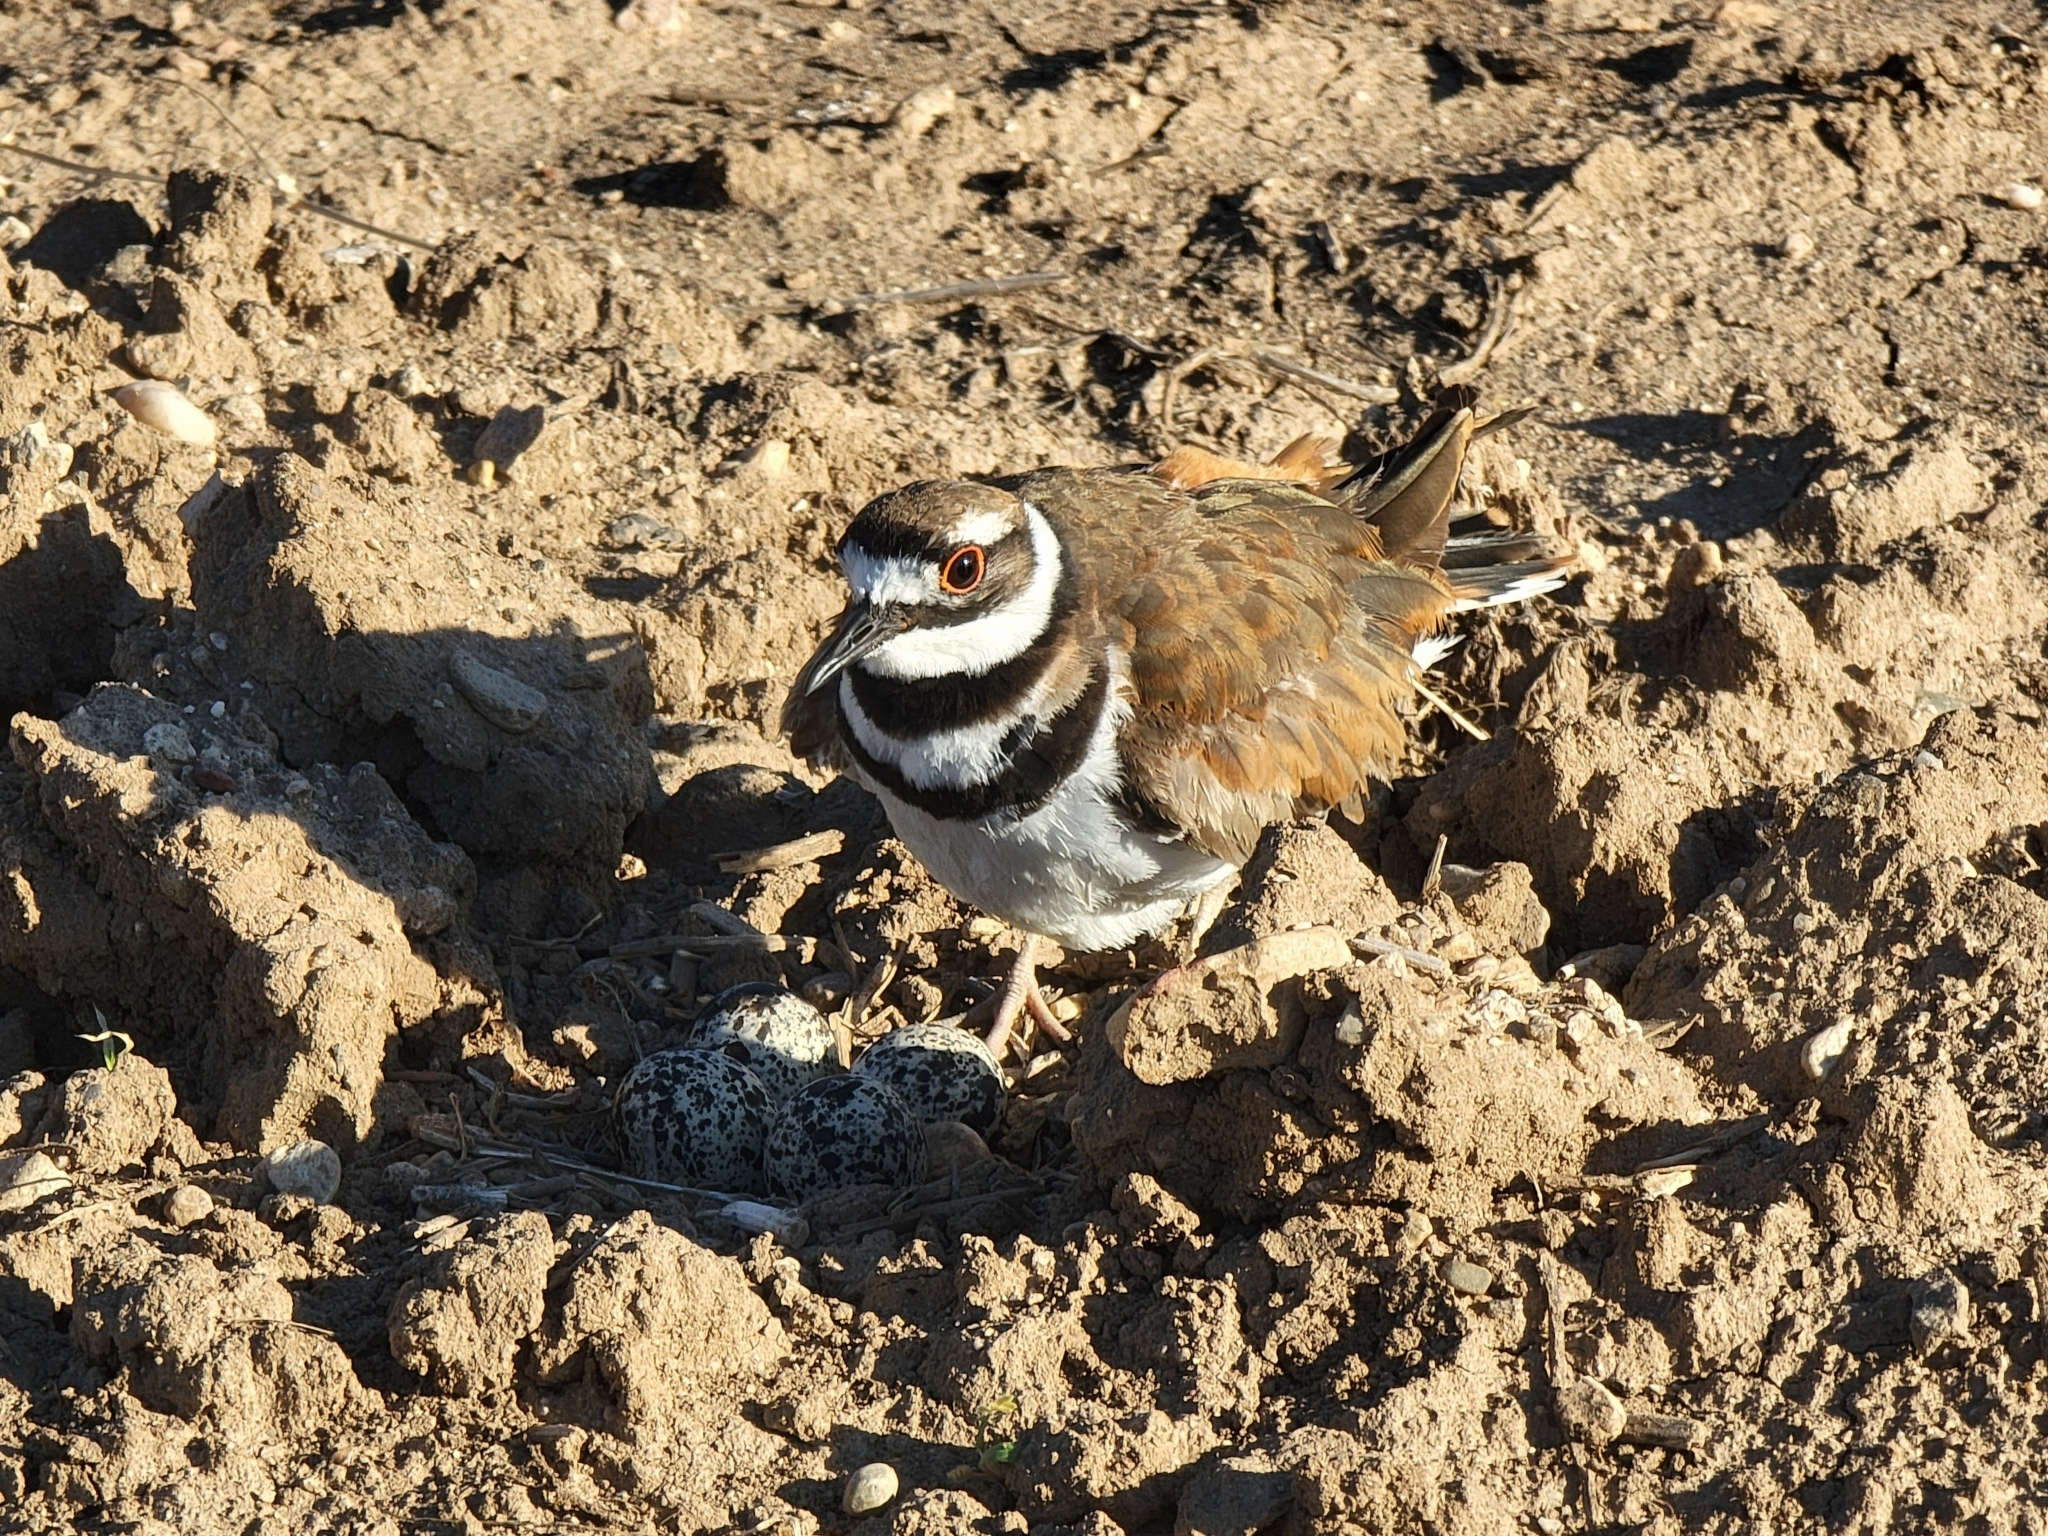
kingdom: Animalia
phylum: Chordata
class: Aves
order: Charadriiformes
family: Charadriidae
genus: Charadrius
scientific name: Charadrius vociferus
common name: Killdeer
